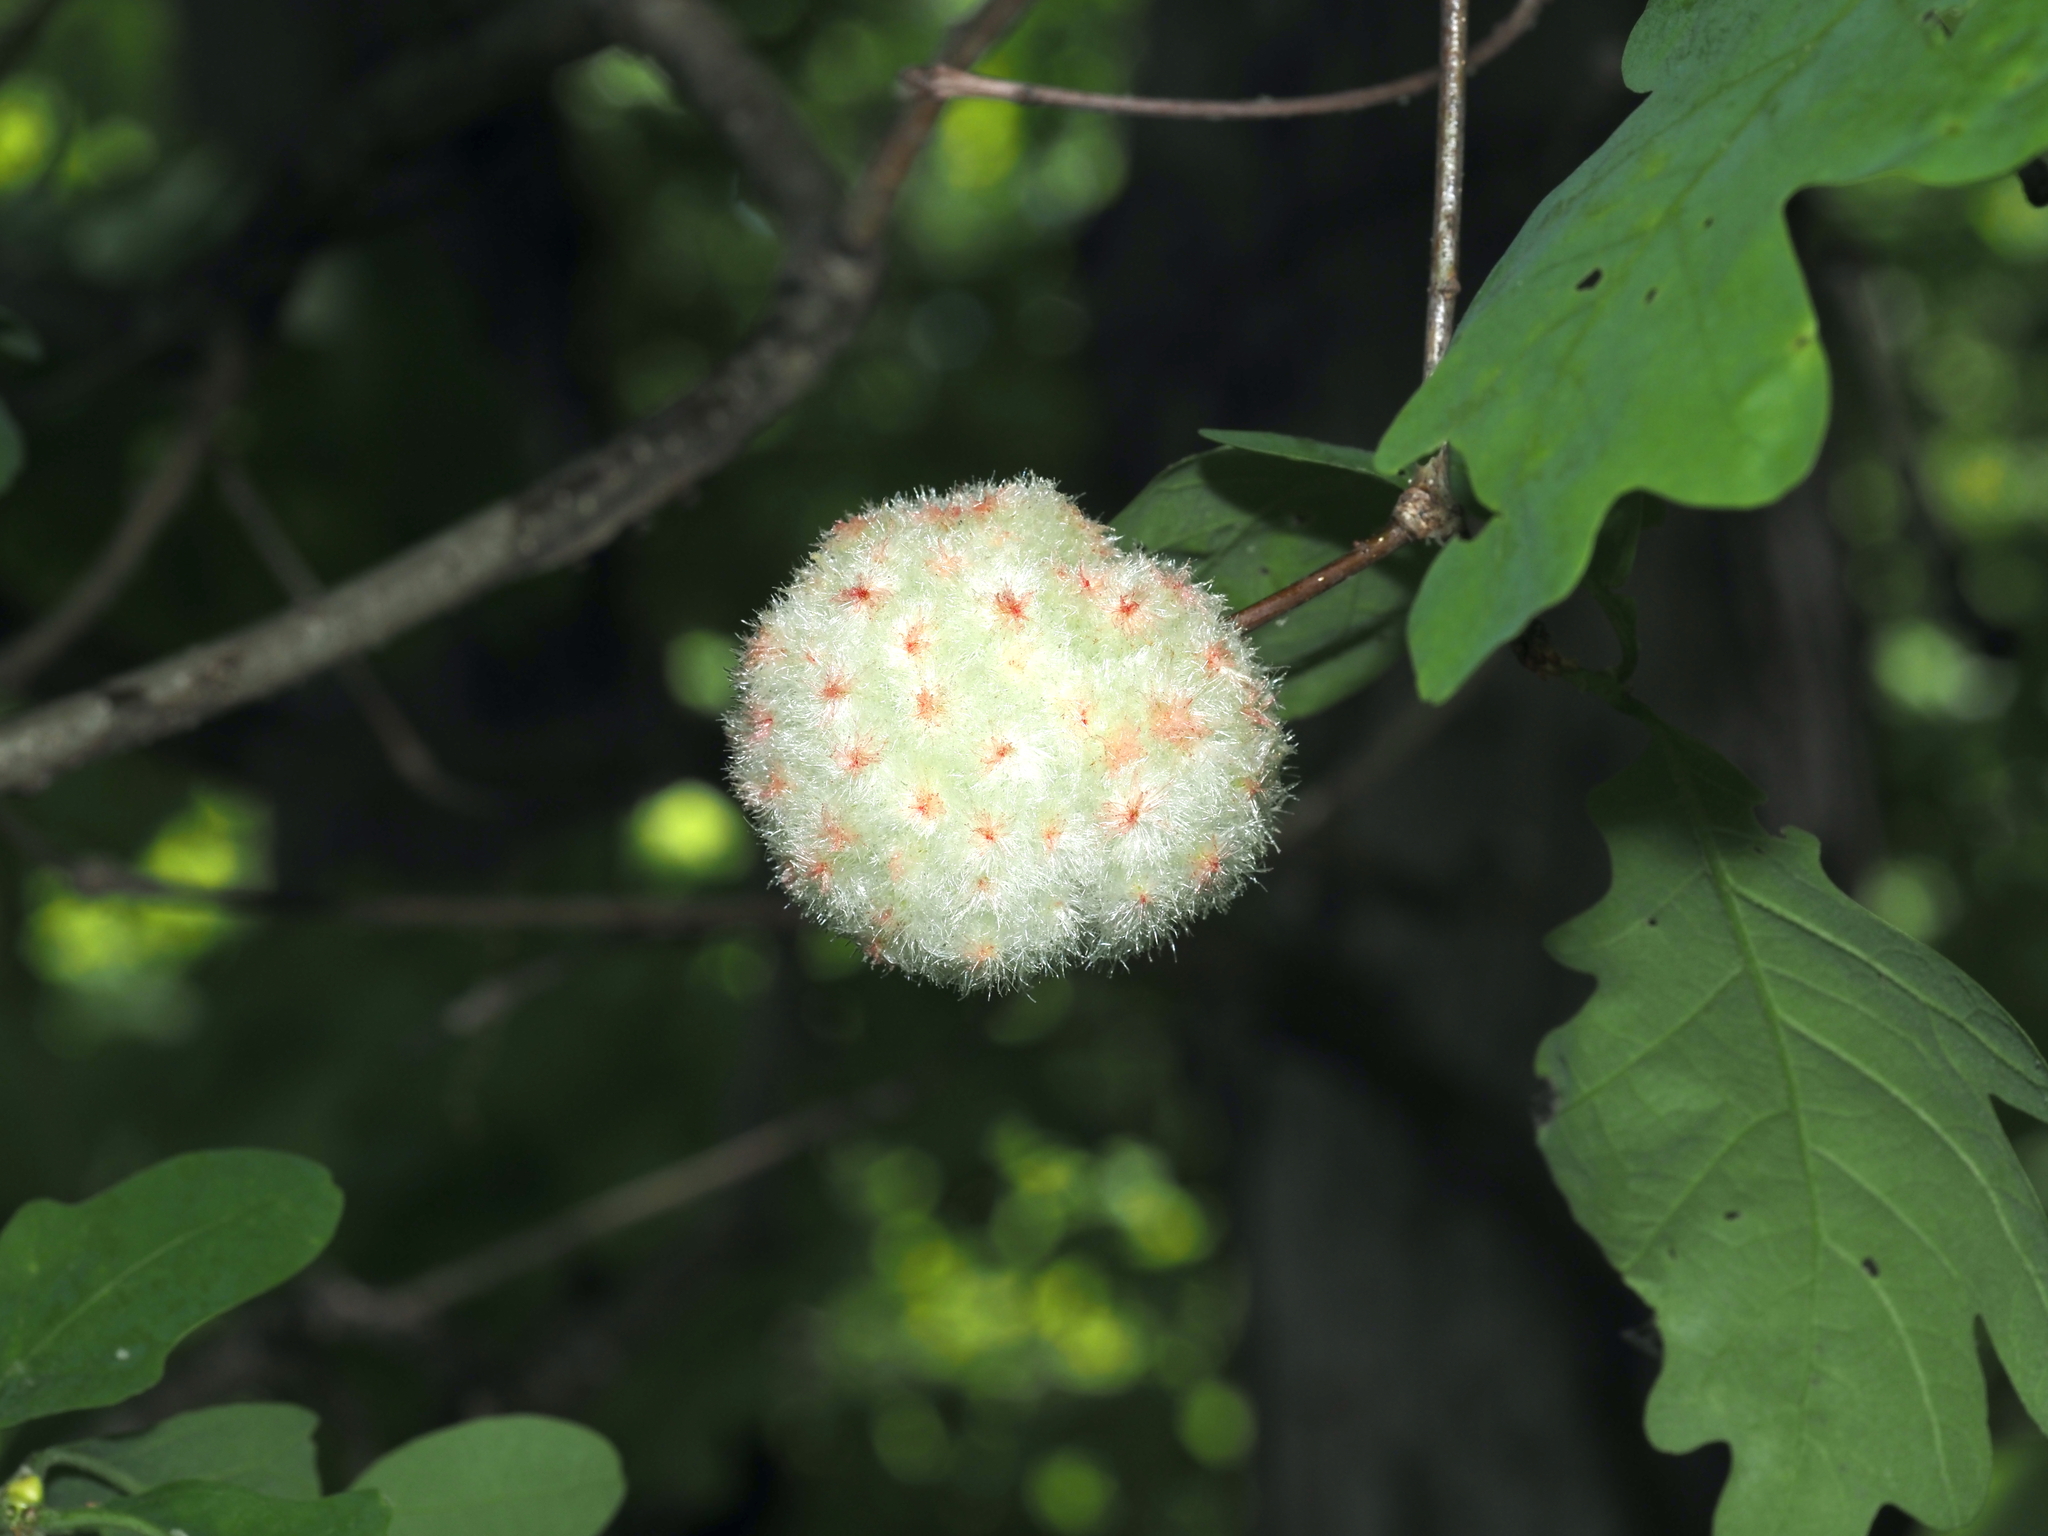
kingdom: Animalia
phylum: Arthropoda
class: Insecta
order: Hymenoptera
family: Cynipidae
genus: Callirhytis
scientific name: Callirhytis
